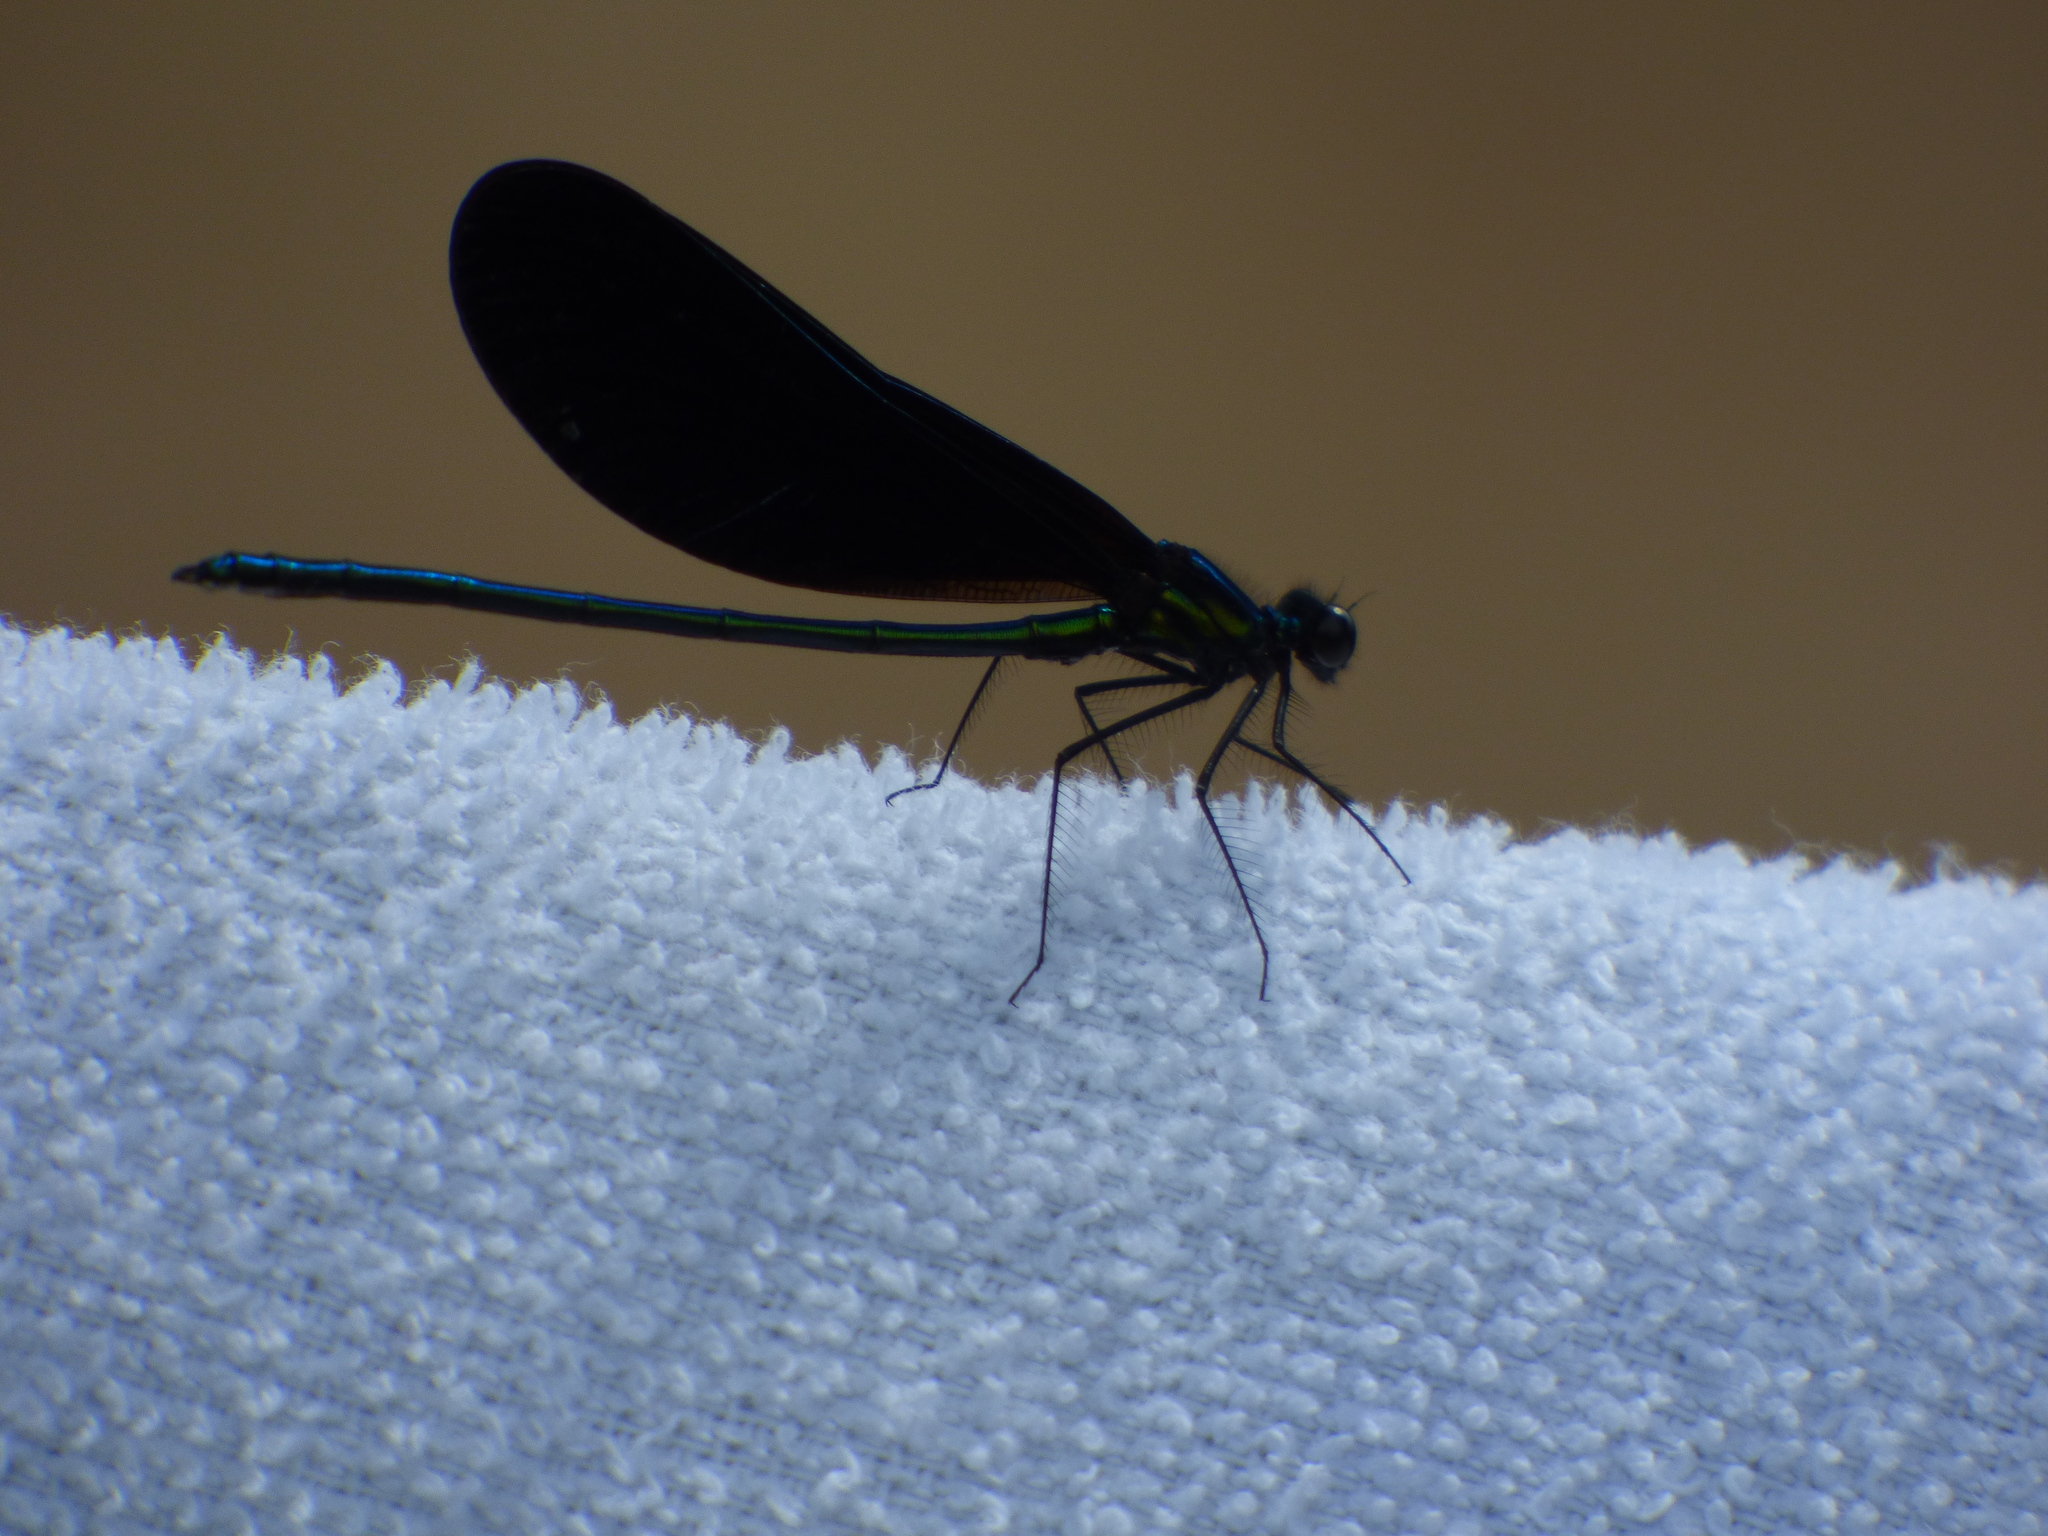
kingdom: Animalia
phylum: Arthropoda
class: Insecta
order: Odonata
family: Calopterygidae
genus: Calopteryx
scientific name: Calopteryx maculata
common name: Ebony jewelwing
